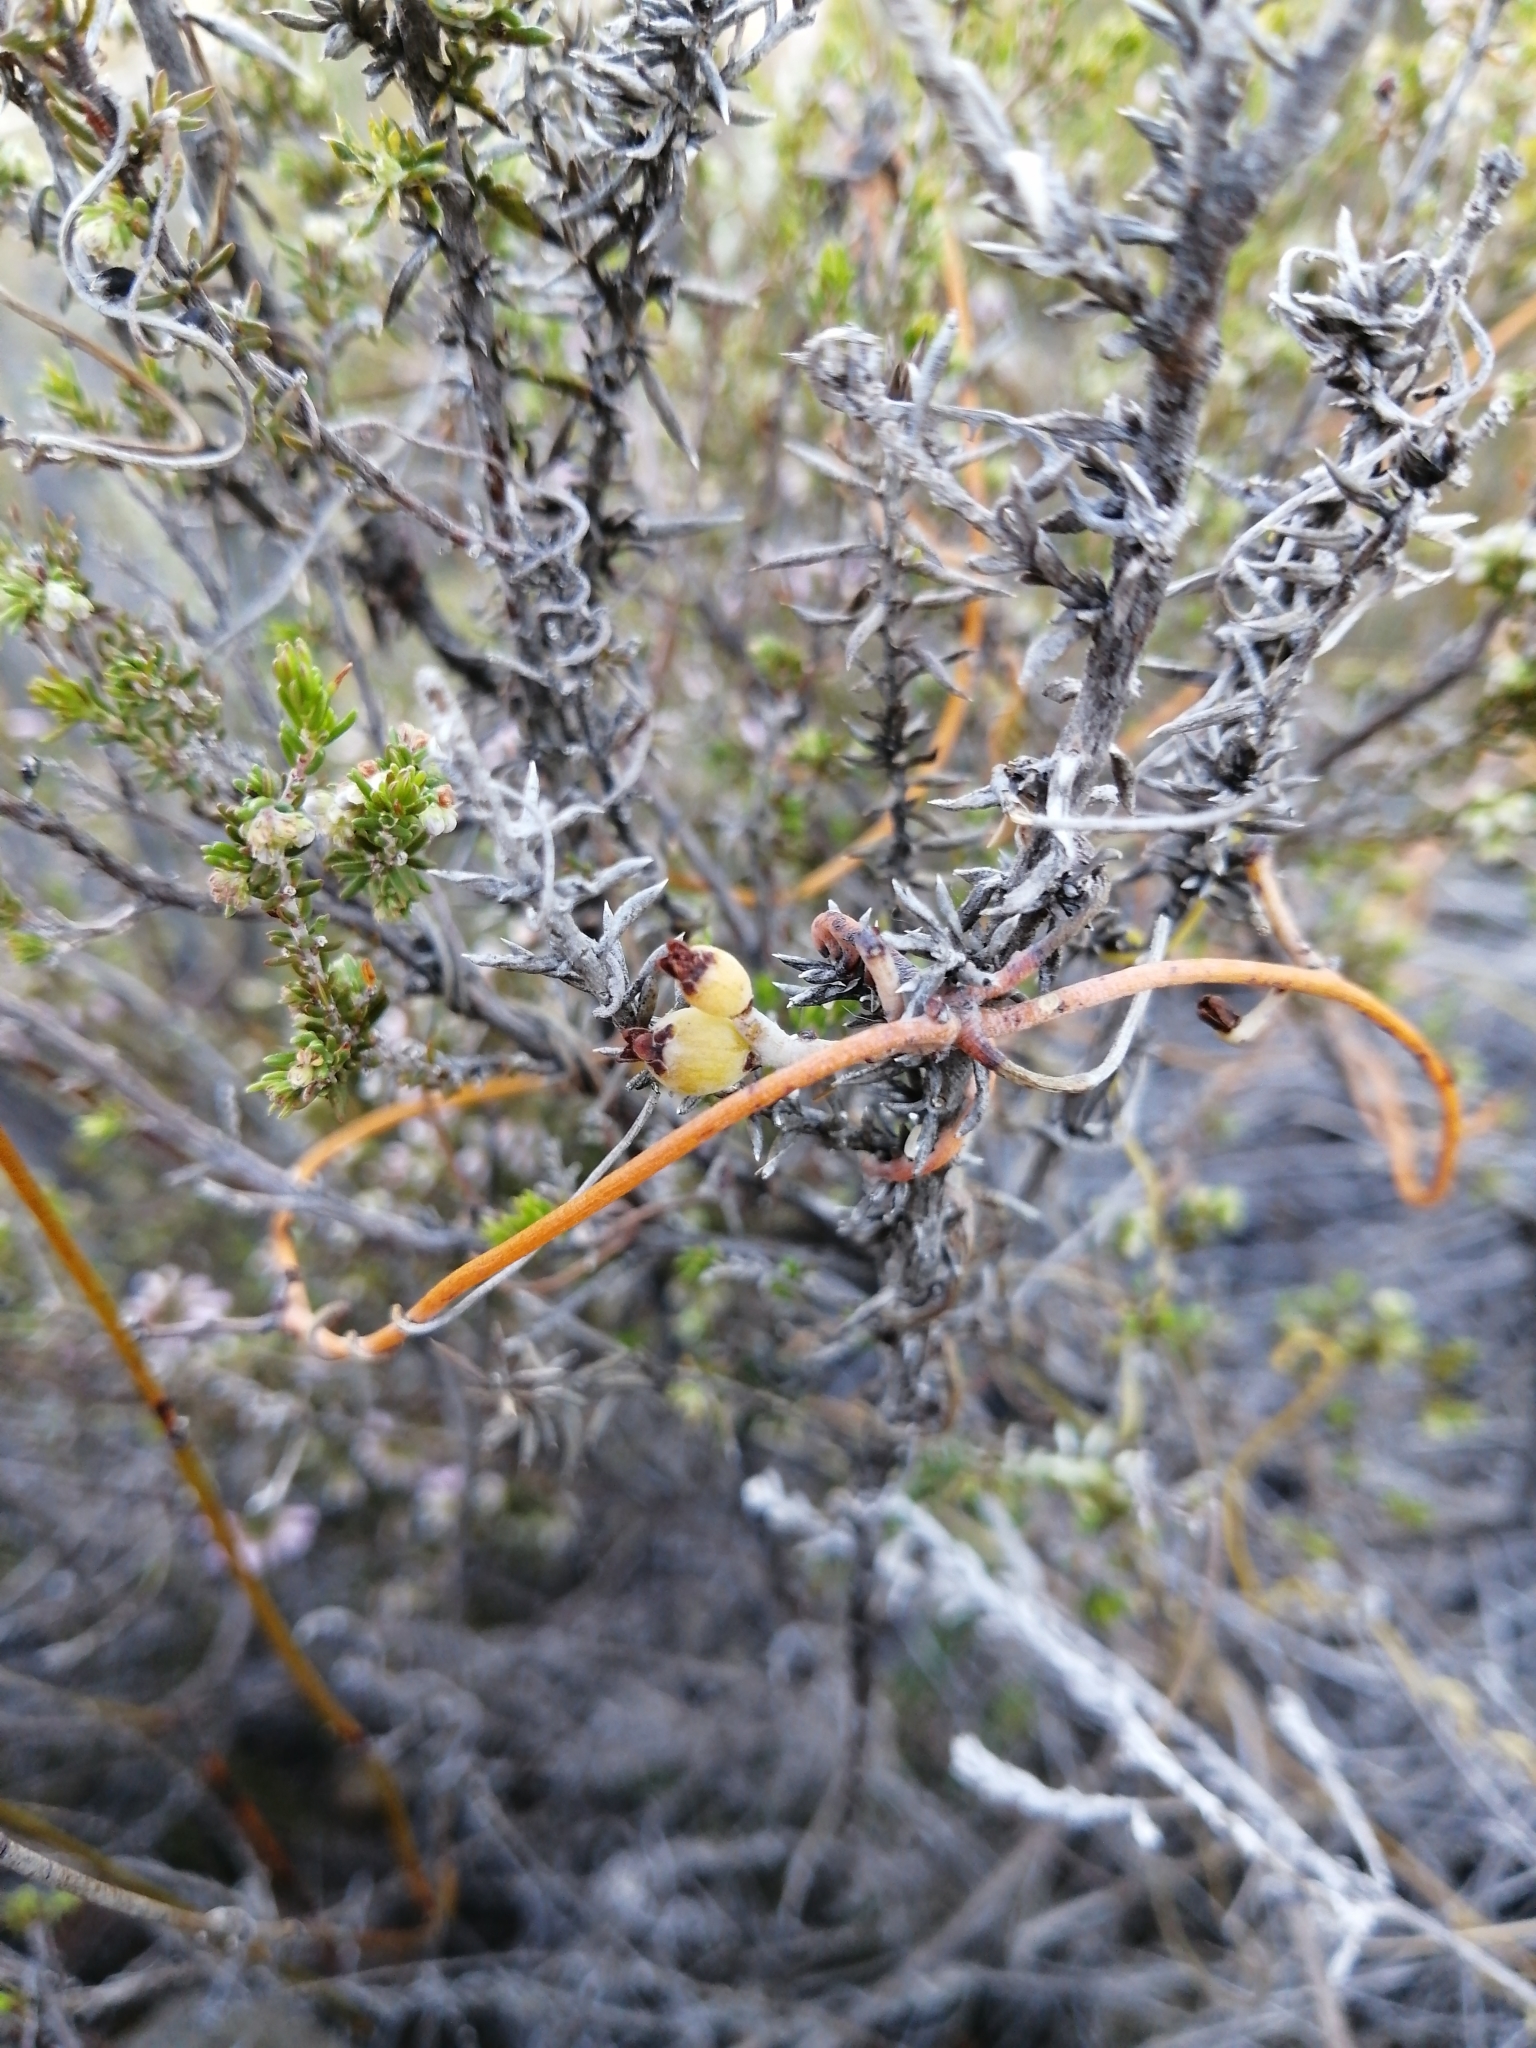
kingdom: Plantae
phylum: Tracheophyta
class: Magnoliopsida
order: Laurales
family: Lauraceae
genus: Cassytha
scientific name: Cassytha ciliolata
